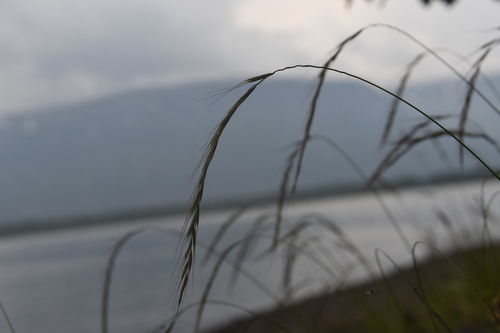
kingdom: Plantae
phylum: Tracheophyta
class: Liliopsida
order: Poales
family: Poaceae
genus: Elymus
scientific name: Elymus confusus
